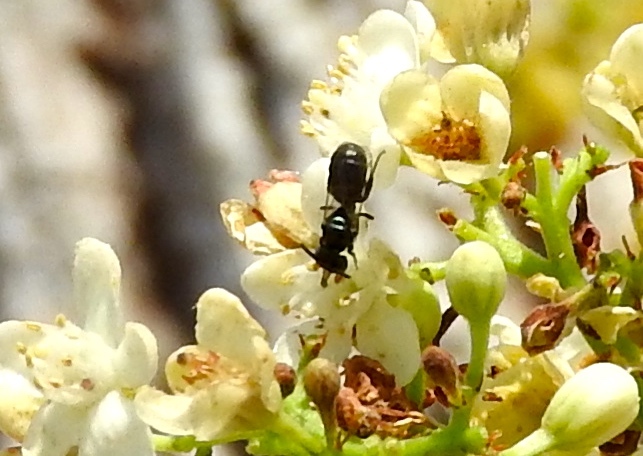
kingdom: Animalia
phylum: Arthropoda
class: Insecta
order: Hymenoptera
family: Apidae
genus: Ceratina
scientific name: Ceratina
